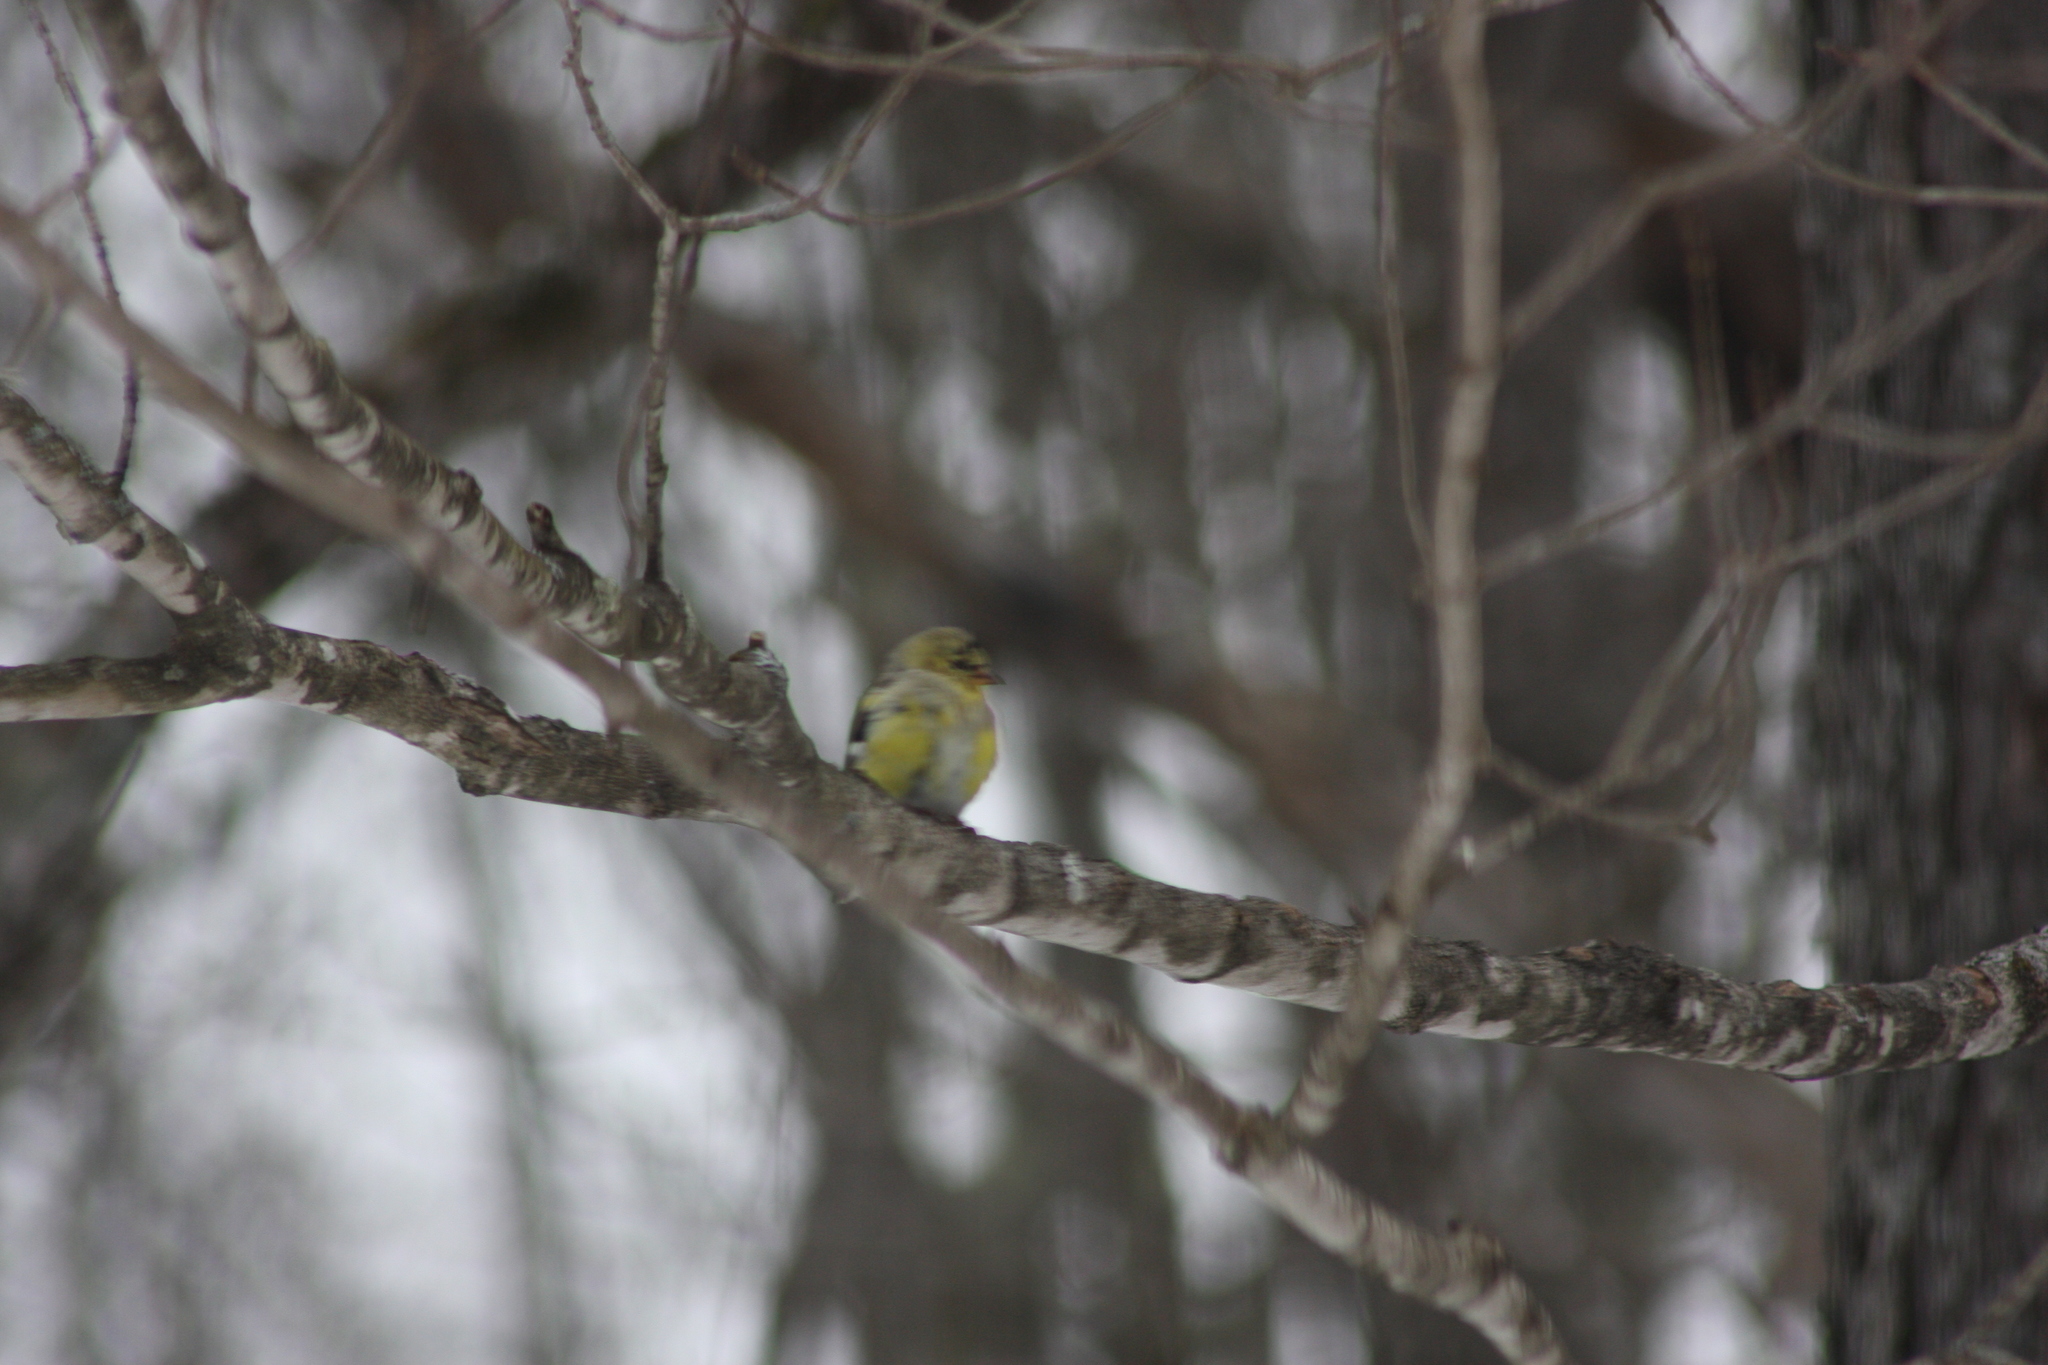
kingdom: Animalia
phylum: Chordata
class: Aves
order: Passeriformes
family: Fringillidae
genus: Spinus
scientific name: Spinus tristis
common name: American goldfinch
